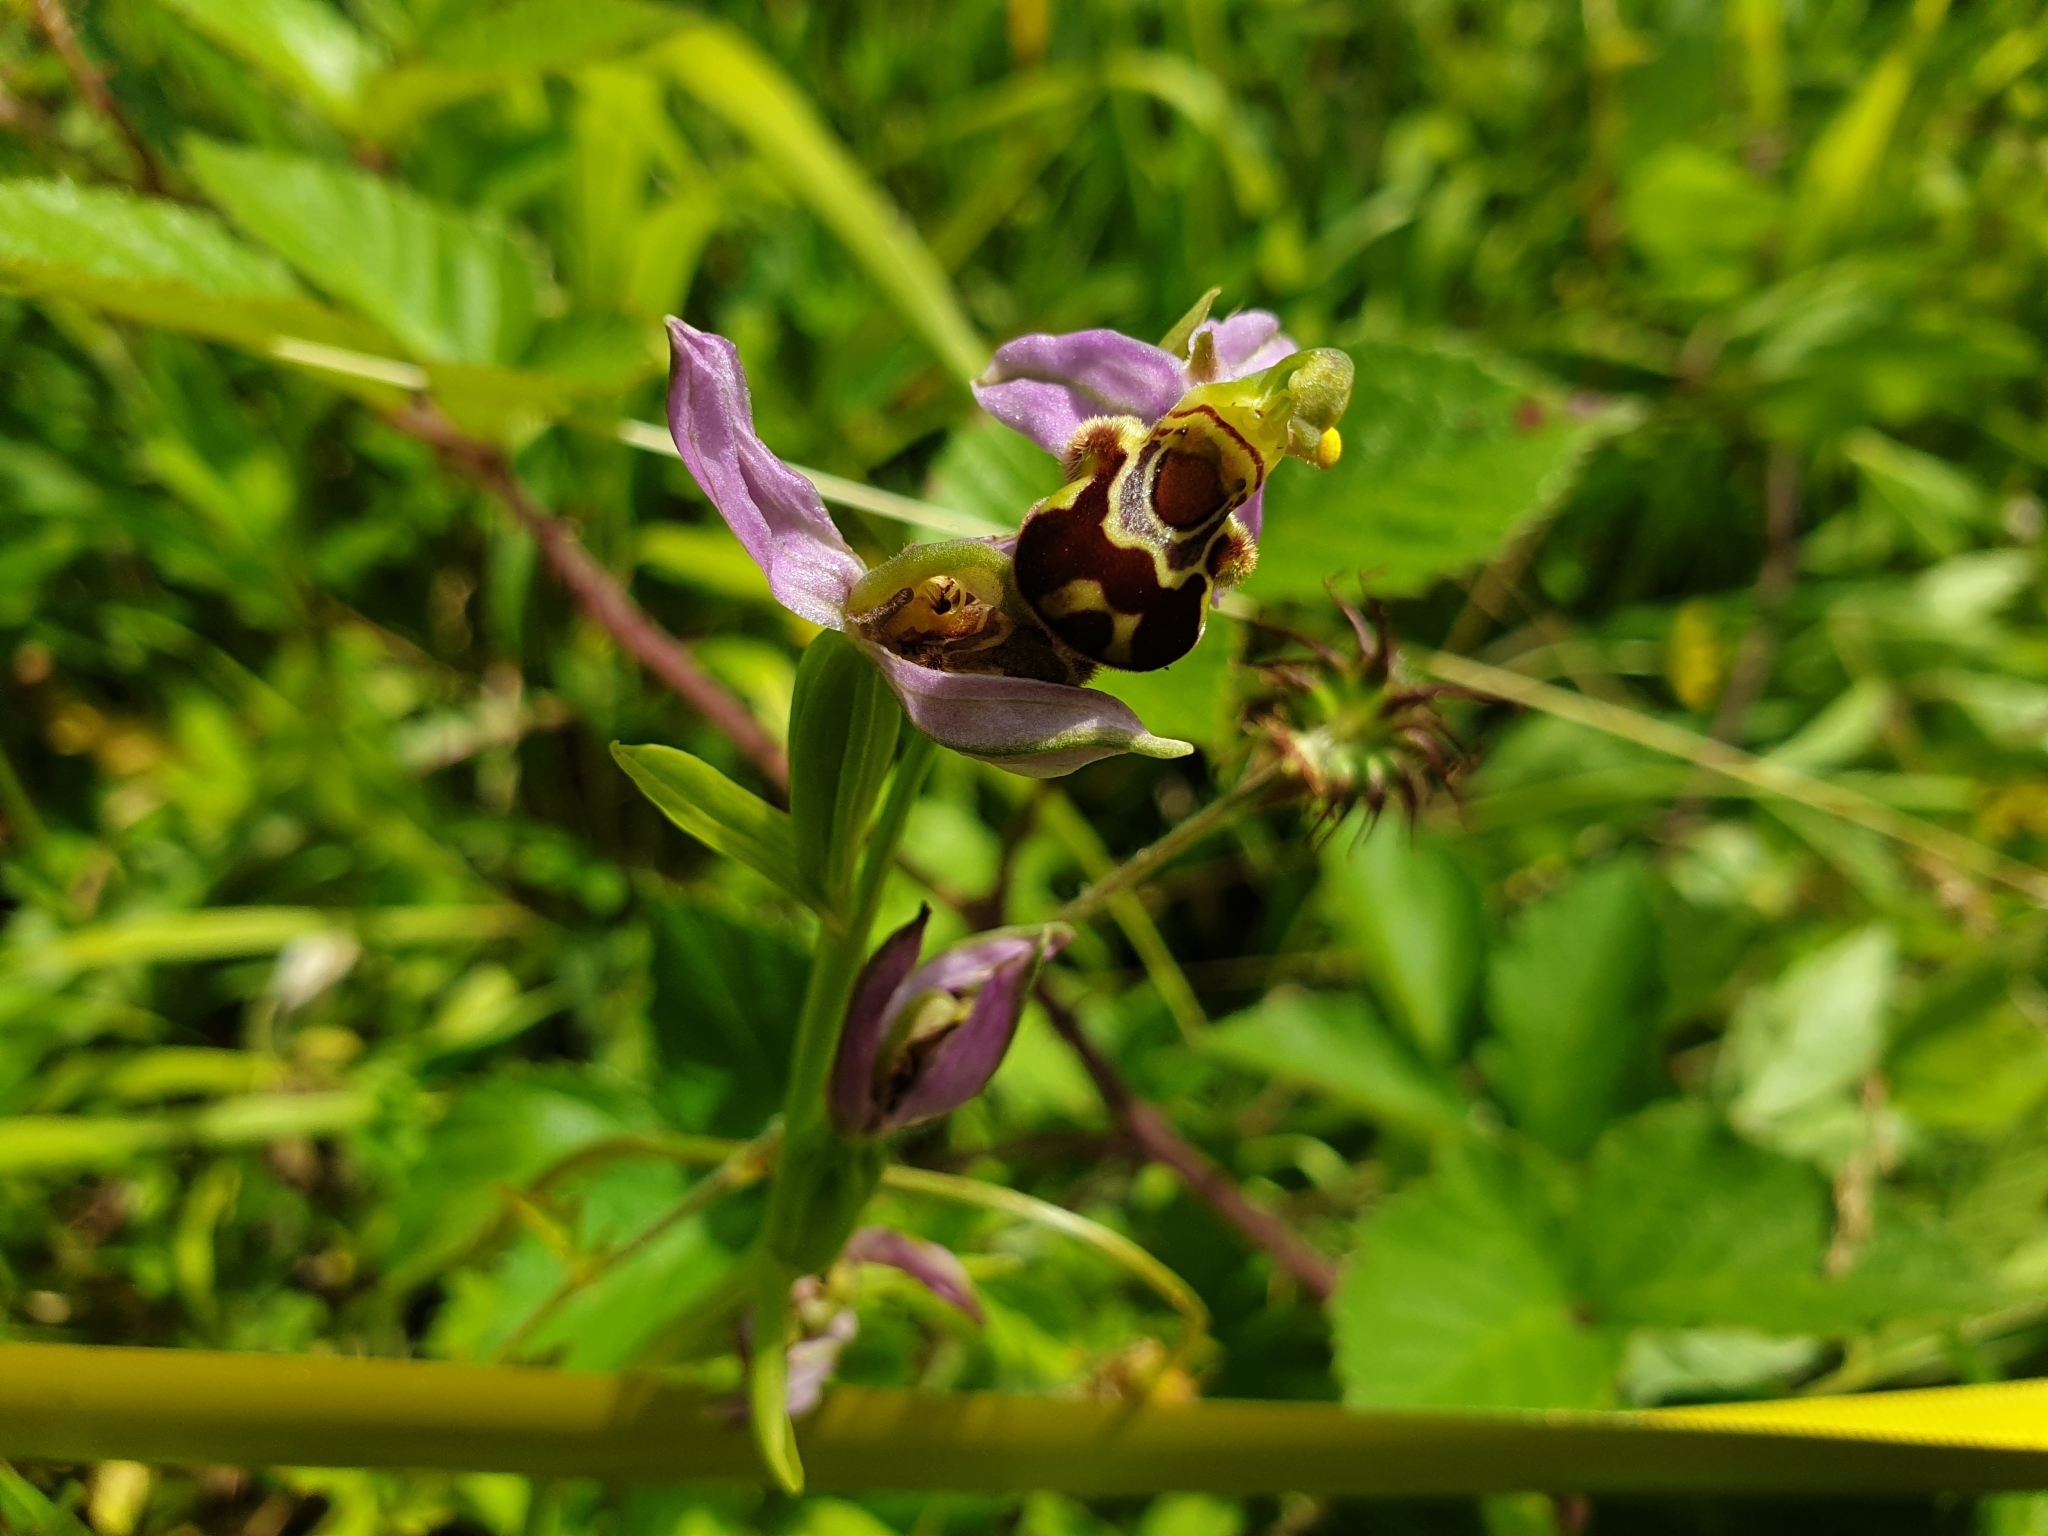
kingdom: Plantae
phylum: Tracheophyta
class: Liliopsida
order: Asparagales
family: Orchidaceae
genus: Ophrys
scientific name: Ophrys apifera
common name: Bee orchid
